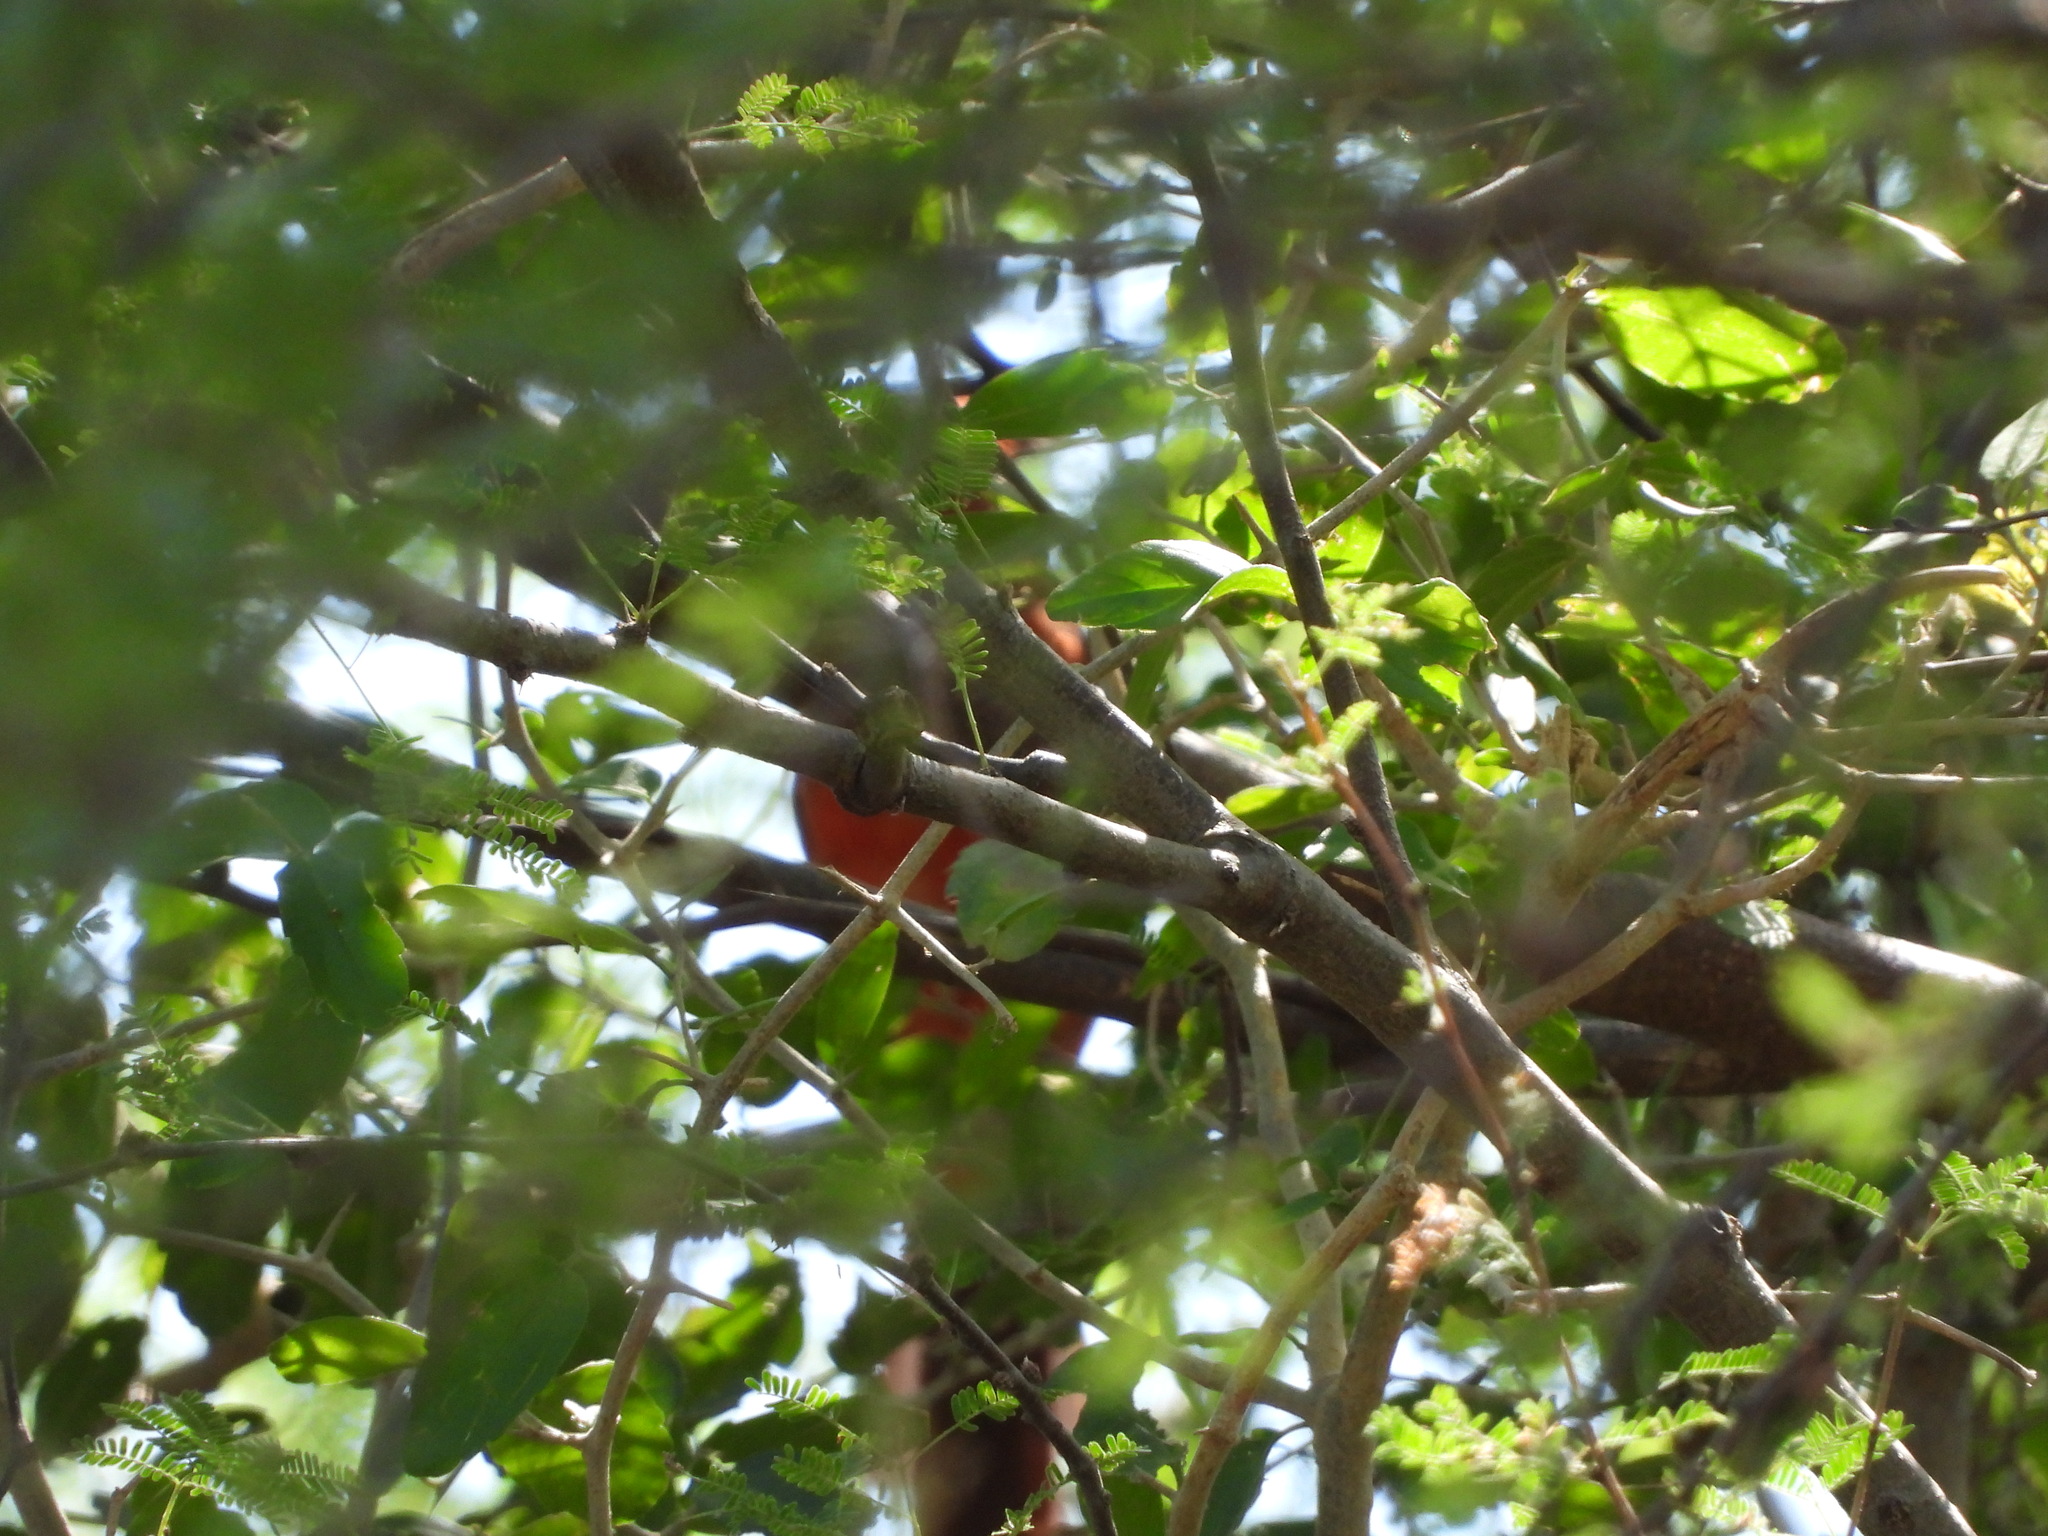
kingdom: Animalia
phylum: Chordata
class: Aves
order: Passeriformes
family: Cardinalidae
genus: Cardinalis
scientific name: Cardinalis cardinalis
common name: Northern cardinal
